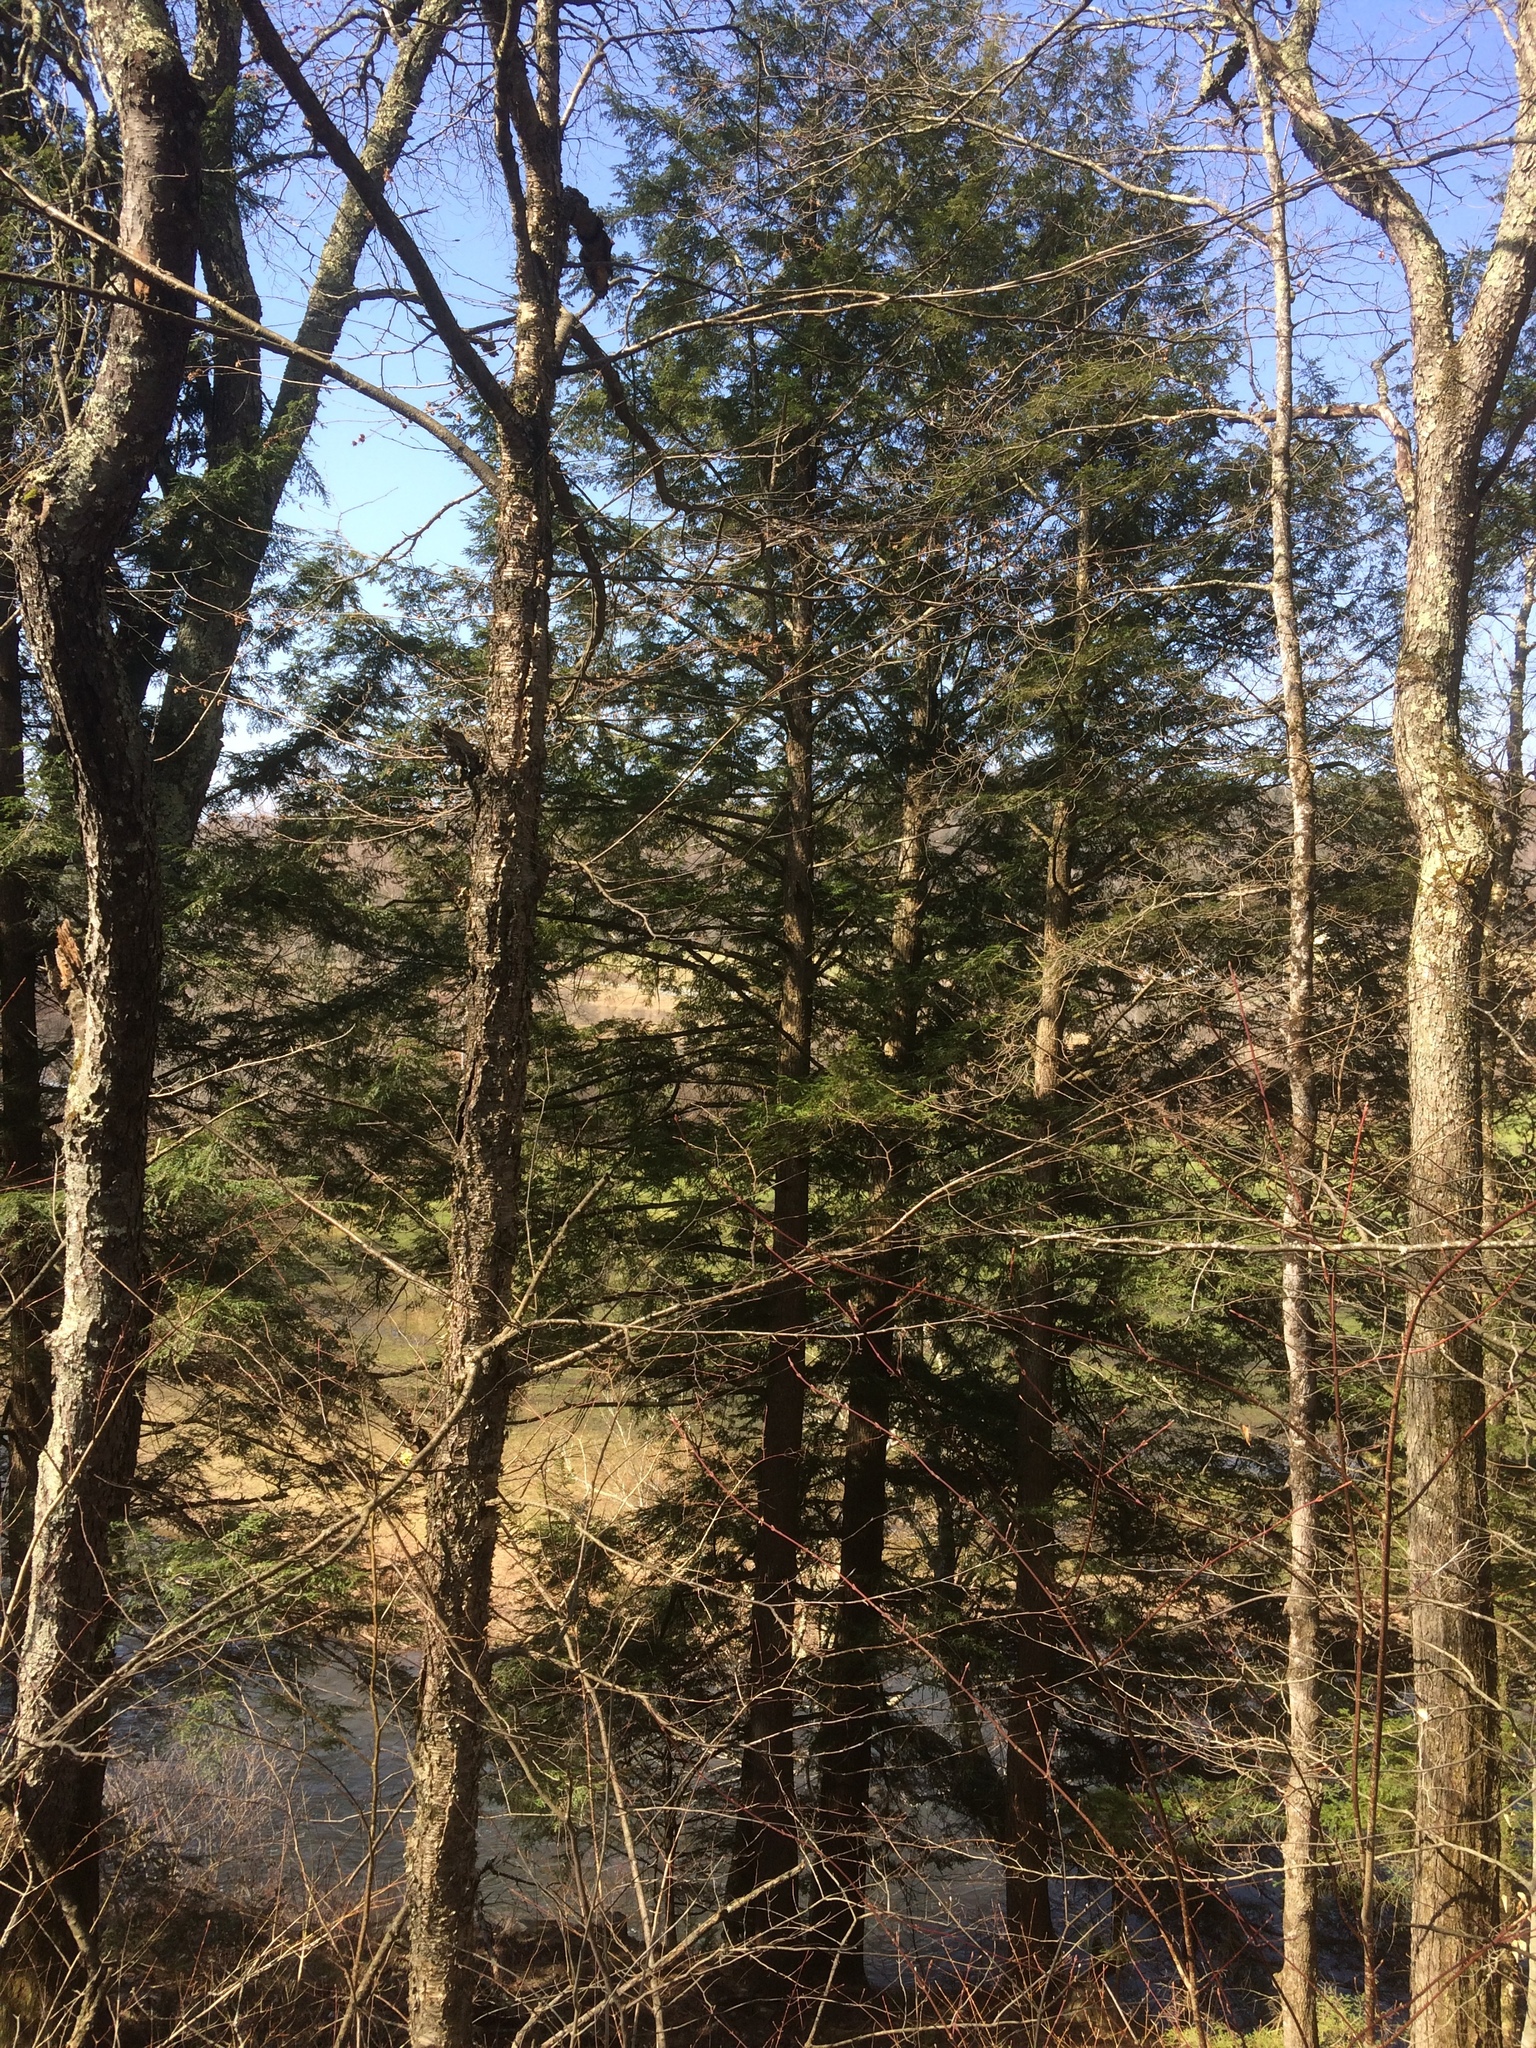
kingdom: Plantae
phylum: Tracheophyta
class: Pinopsida
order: Pinales
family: Pinaceae
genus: Tsuga
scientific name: Tsuga canadensis
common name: Eastern hemlock
